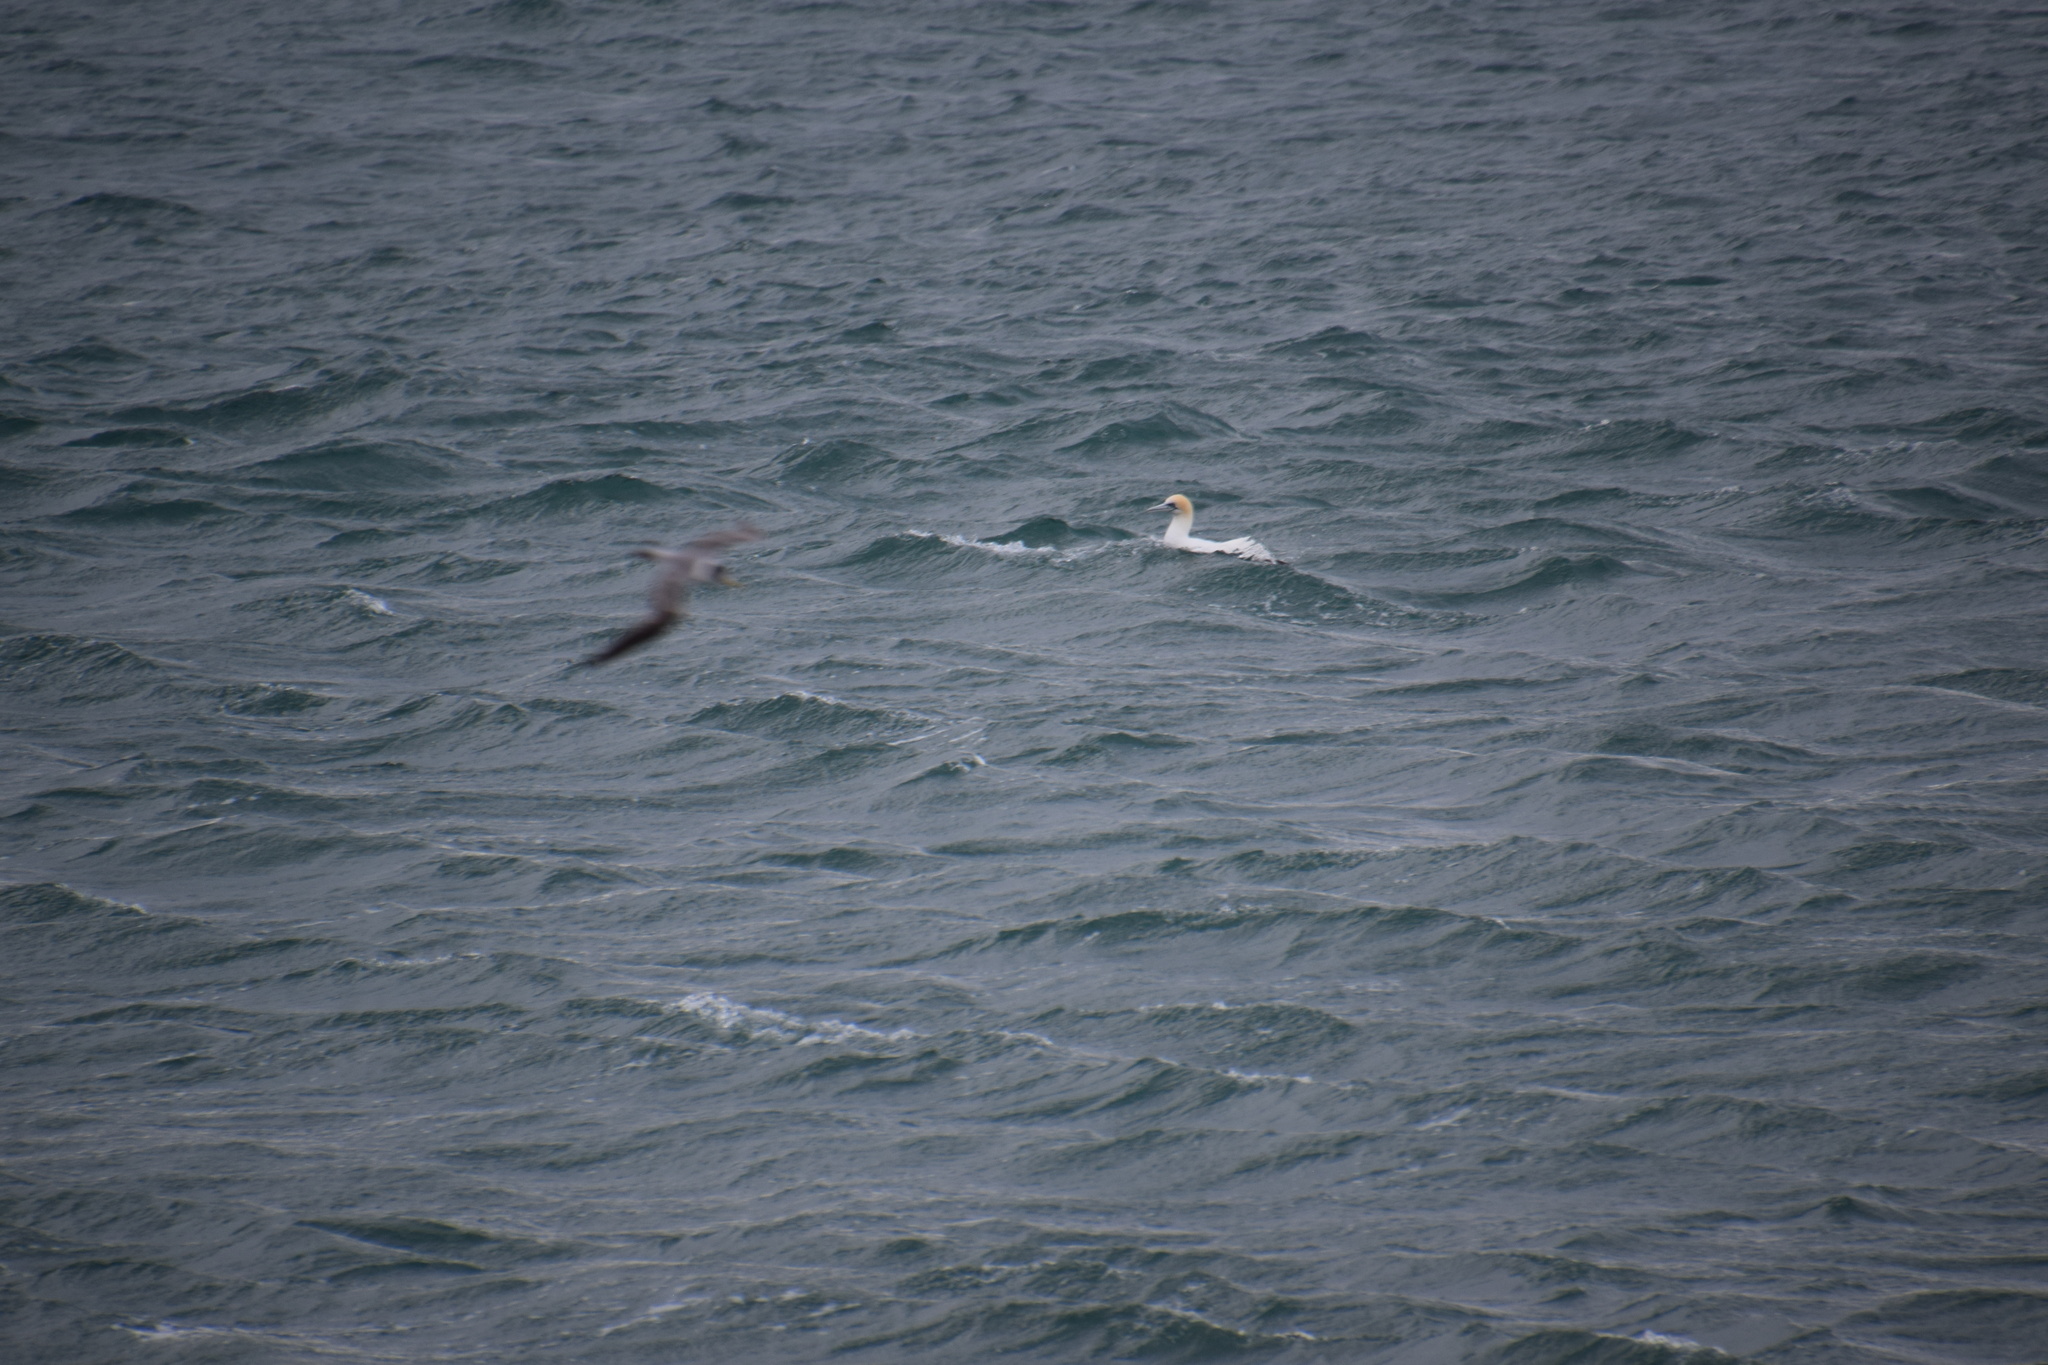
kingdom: Animalia
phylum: Chordata
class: Aves
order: Suliformes
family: Sulidae
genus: Morus
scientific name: Morus serrator
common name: Australasian gannet
